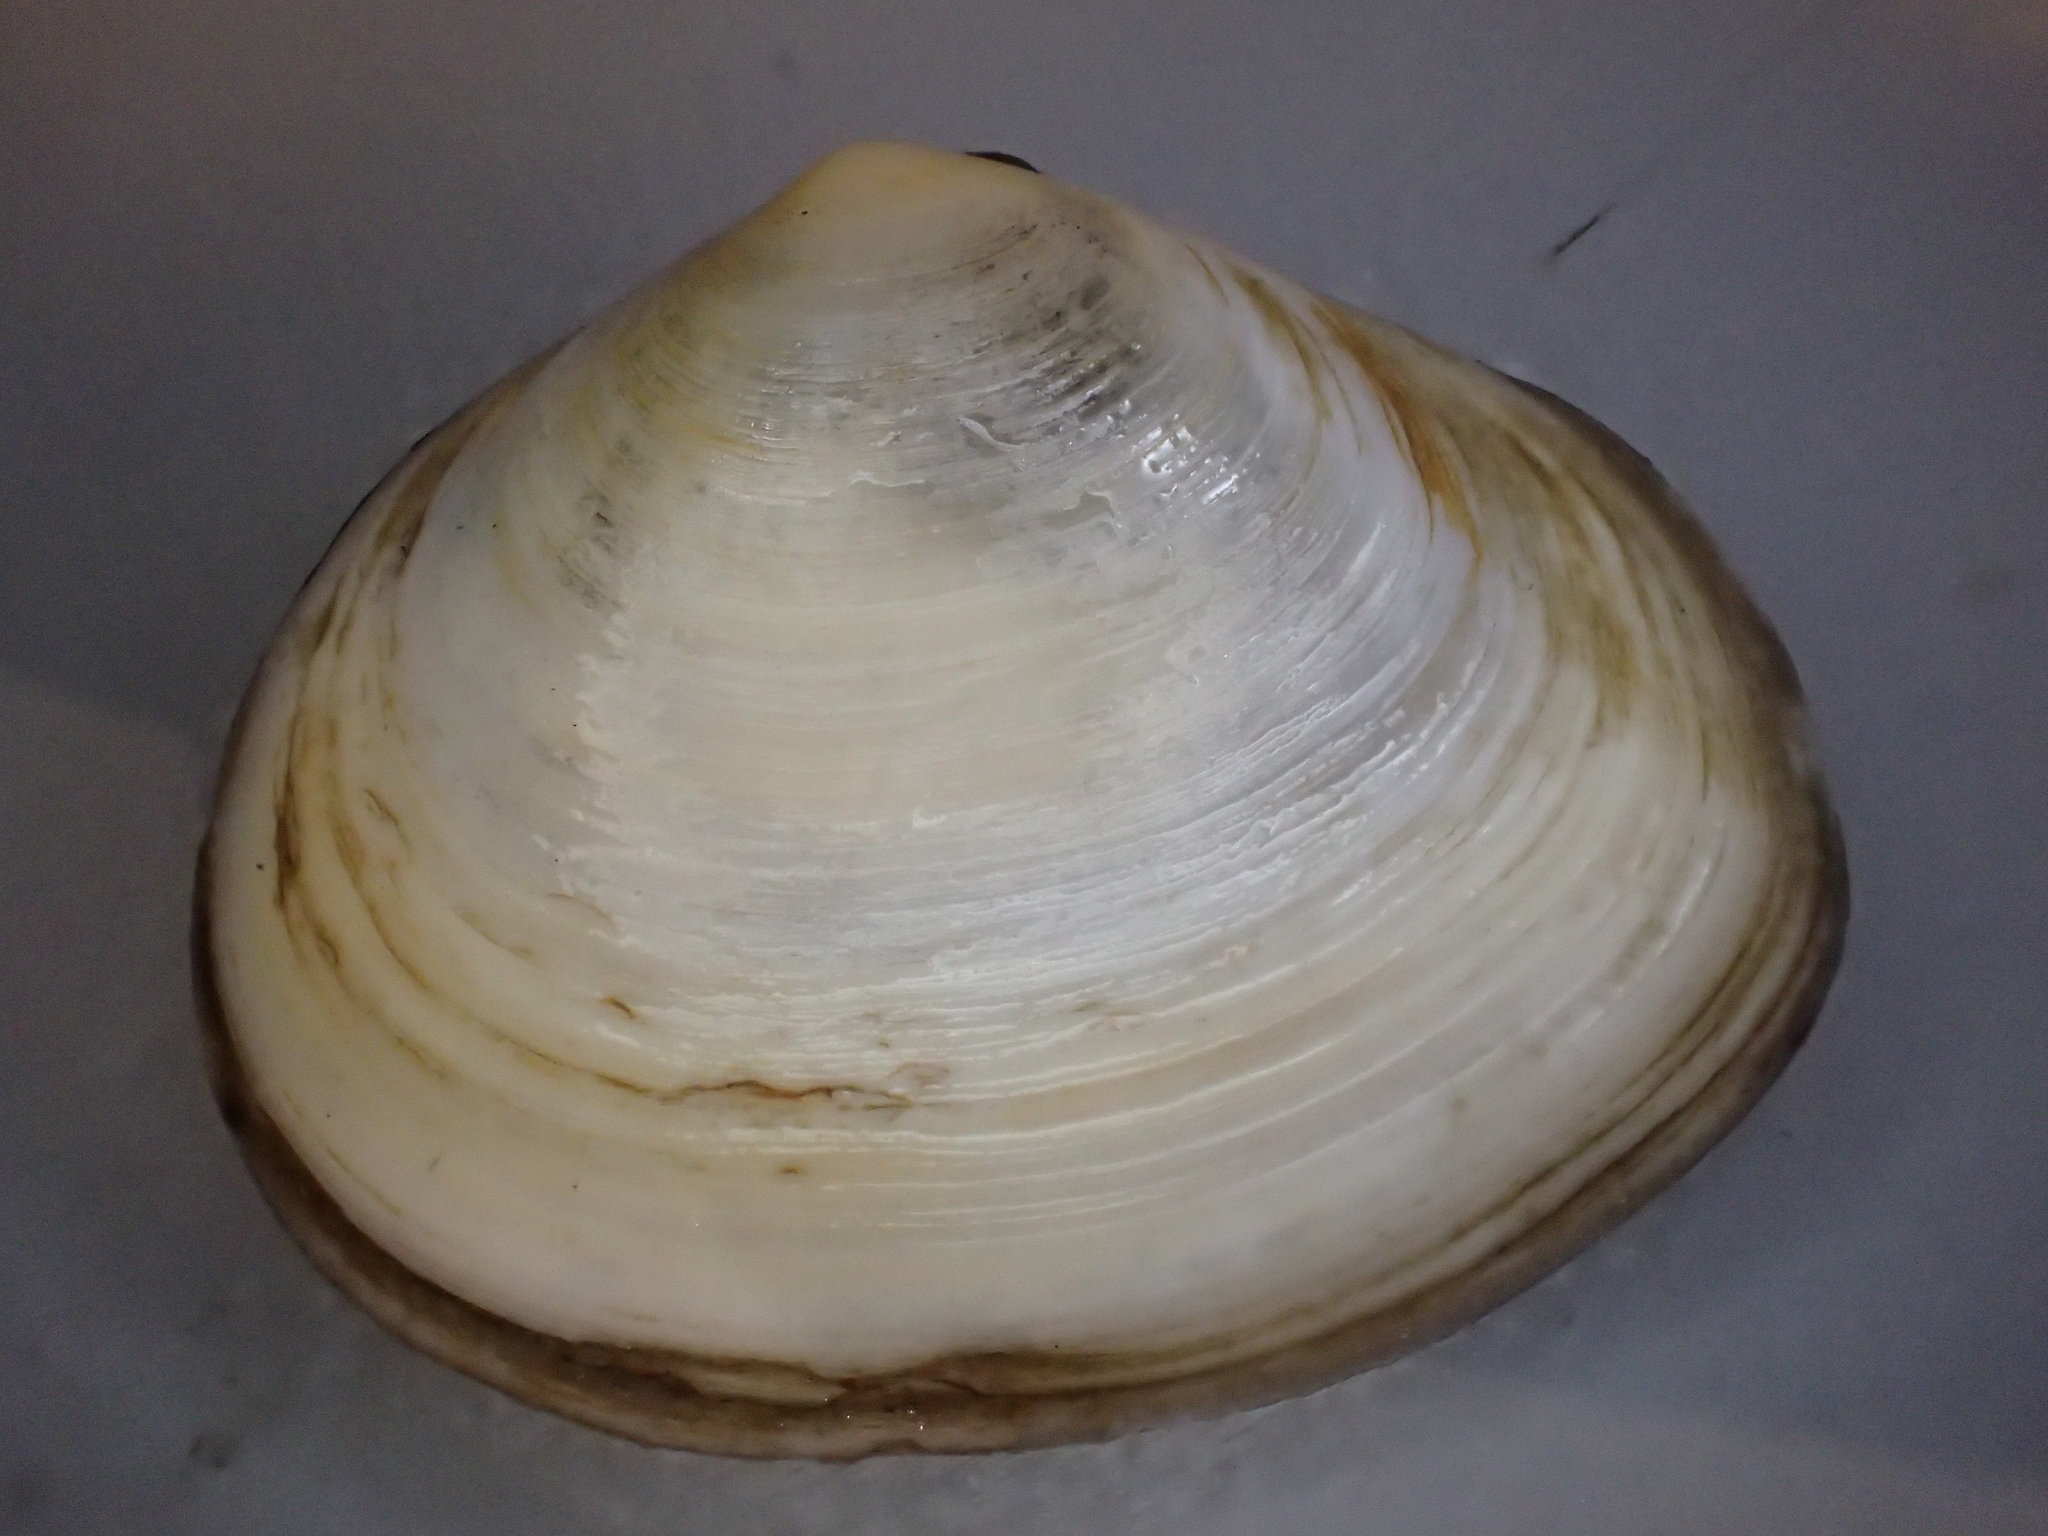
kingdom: Animalia
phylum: Mollusca
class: Bivalvia
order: Cardiida
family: Semelidae
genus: Scrobicularia
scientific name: Scrobicularia plana
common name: Peppery furrow shell
